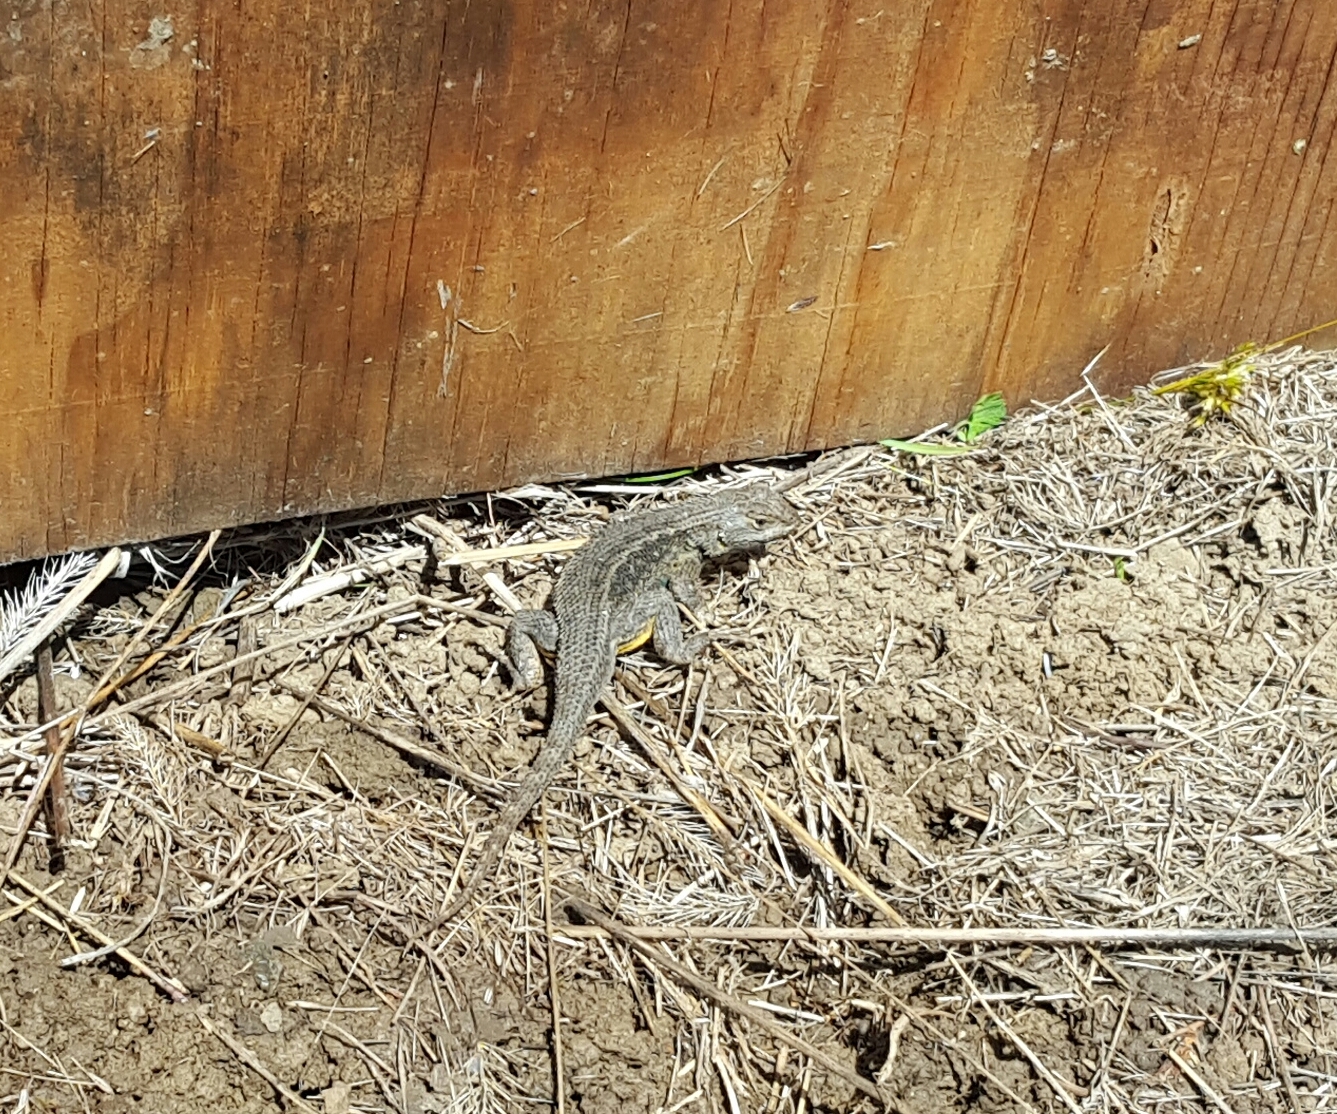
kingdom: Animalia
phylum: Chordata
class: Squamata
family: Phrynosomatidae
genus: Sceloporus
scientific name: Sceloporus occidentalis
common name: Western fence lizard
